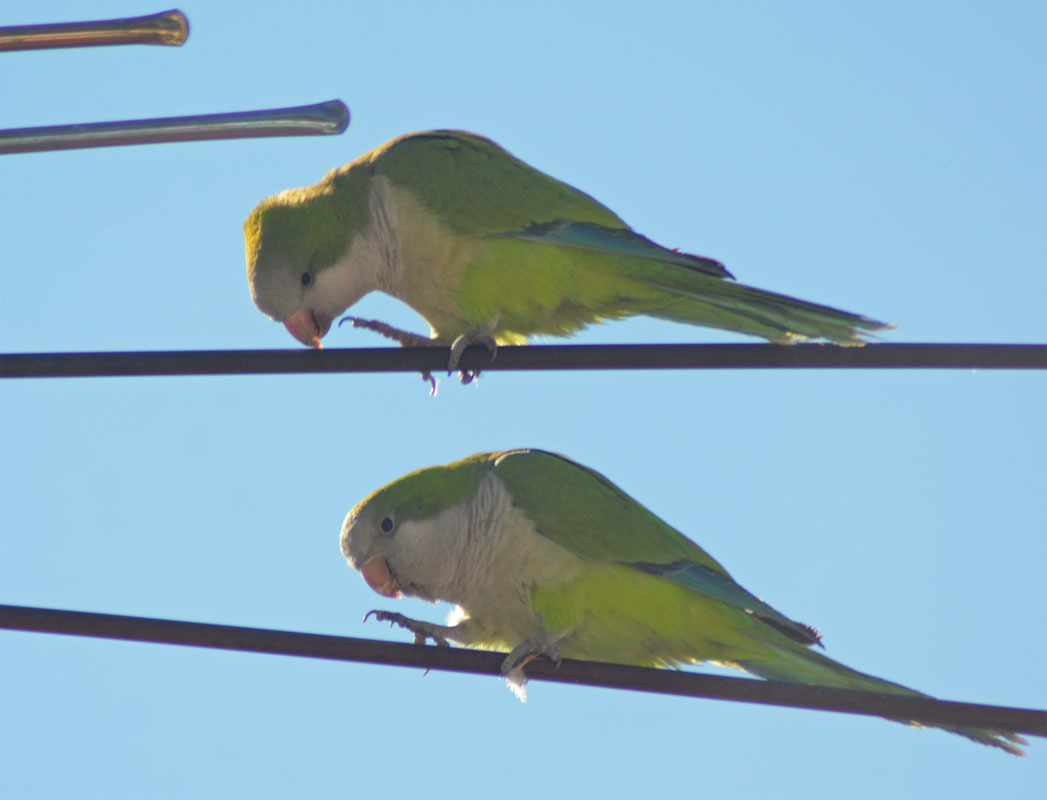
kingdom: Animalia
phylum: Chordata
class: Aves
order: Psittaciformes
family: Psittacidae
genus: Myiopsitta
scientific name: Myiopsitta monachus
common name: Monk parakeet
